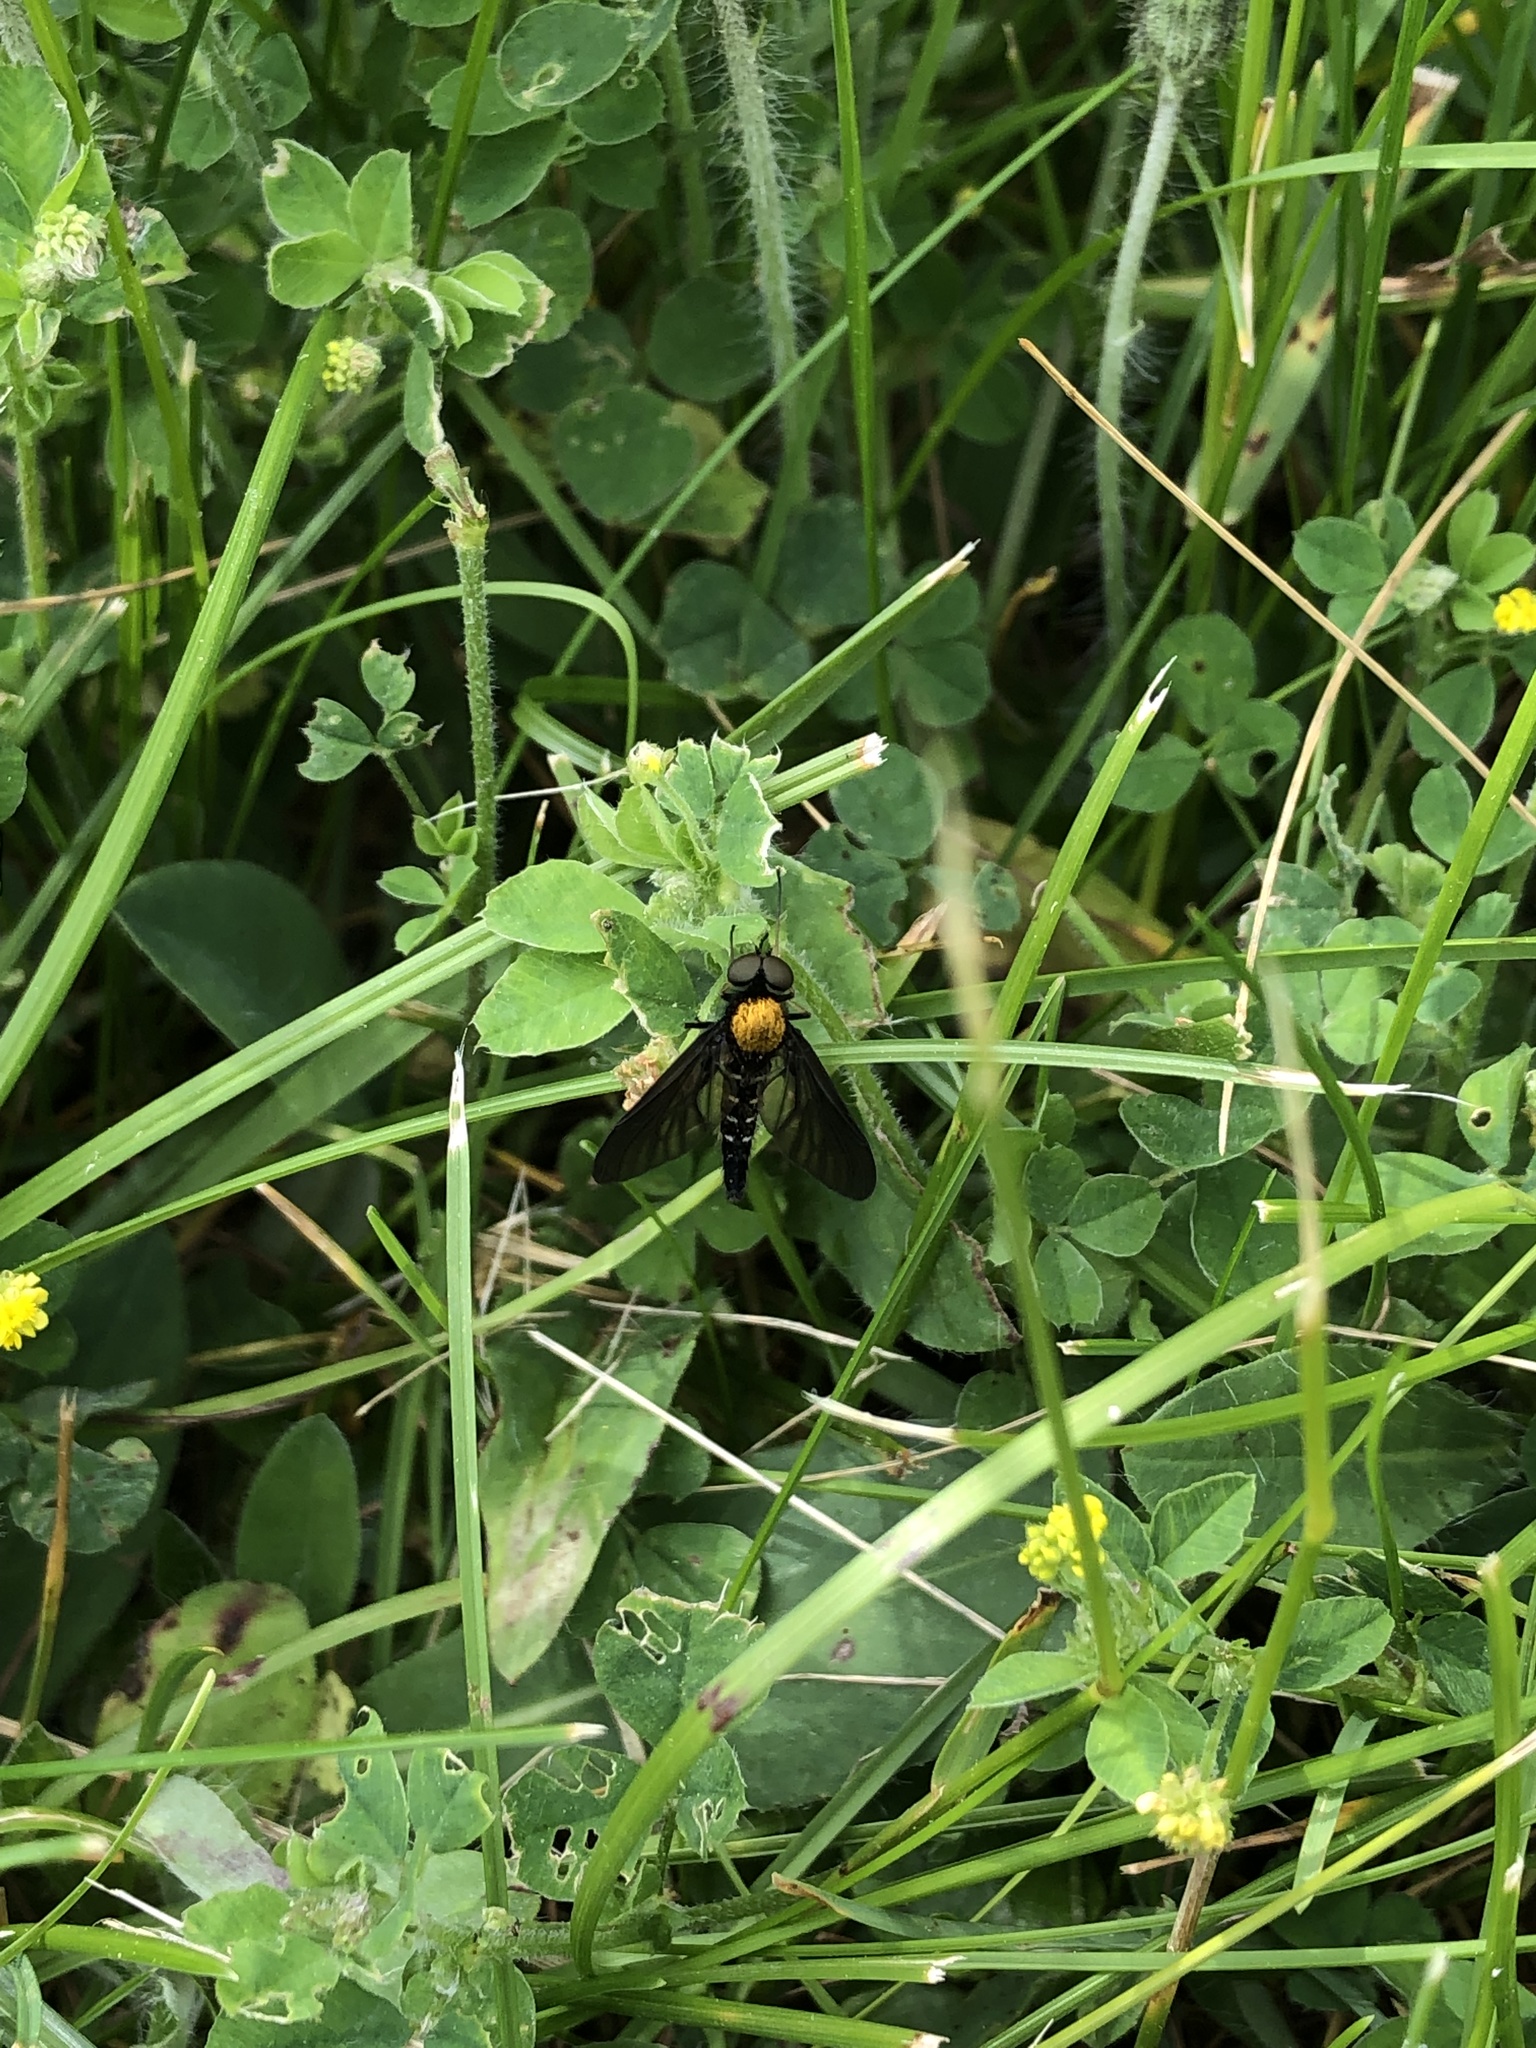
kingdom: Animalia
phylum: Arthropoda
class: Insecta
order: Diptera
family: Rhagionidae
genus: Chrysopilus
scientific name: Chrysopilus thoracicus
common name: Golden-backed snipe fly
